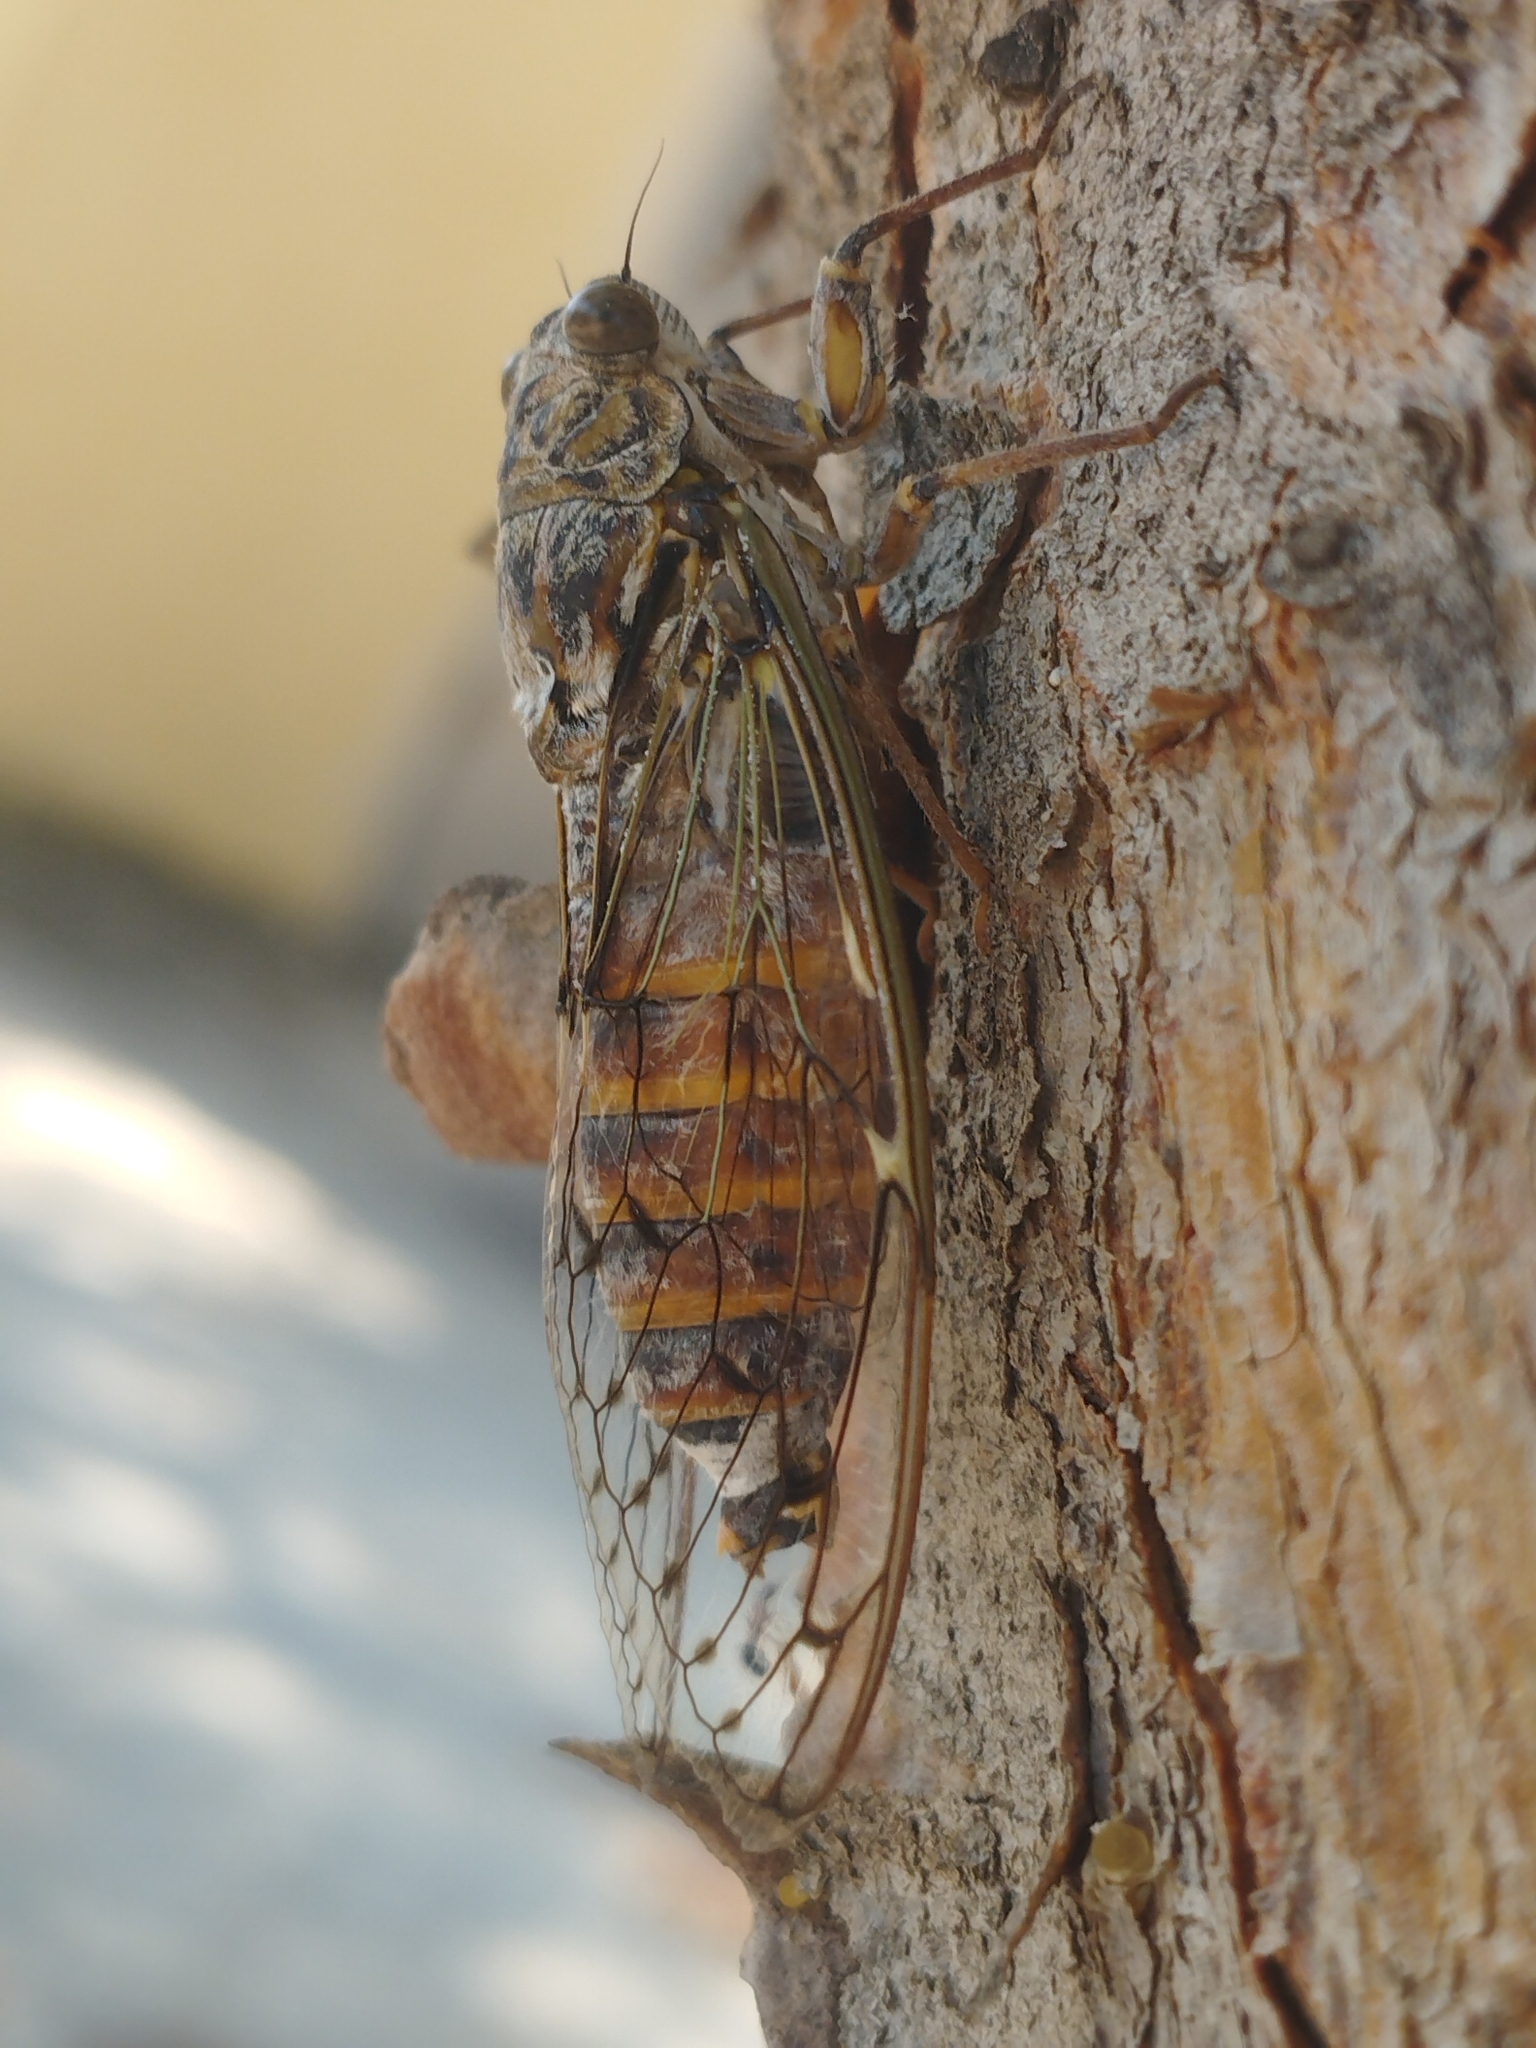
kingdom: Animalia
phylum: Arthropoda
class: Insecta
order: Hemiptera
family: Cicadidae
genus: Cicada
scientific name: Cicada orni
